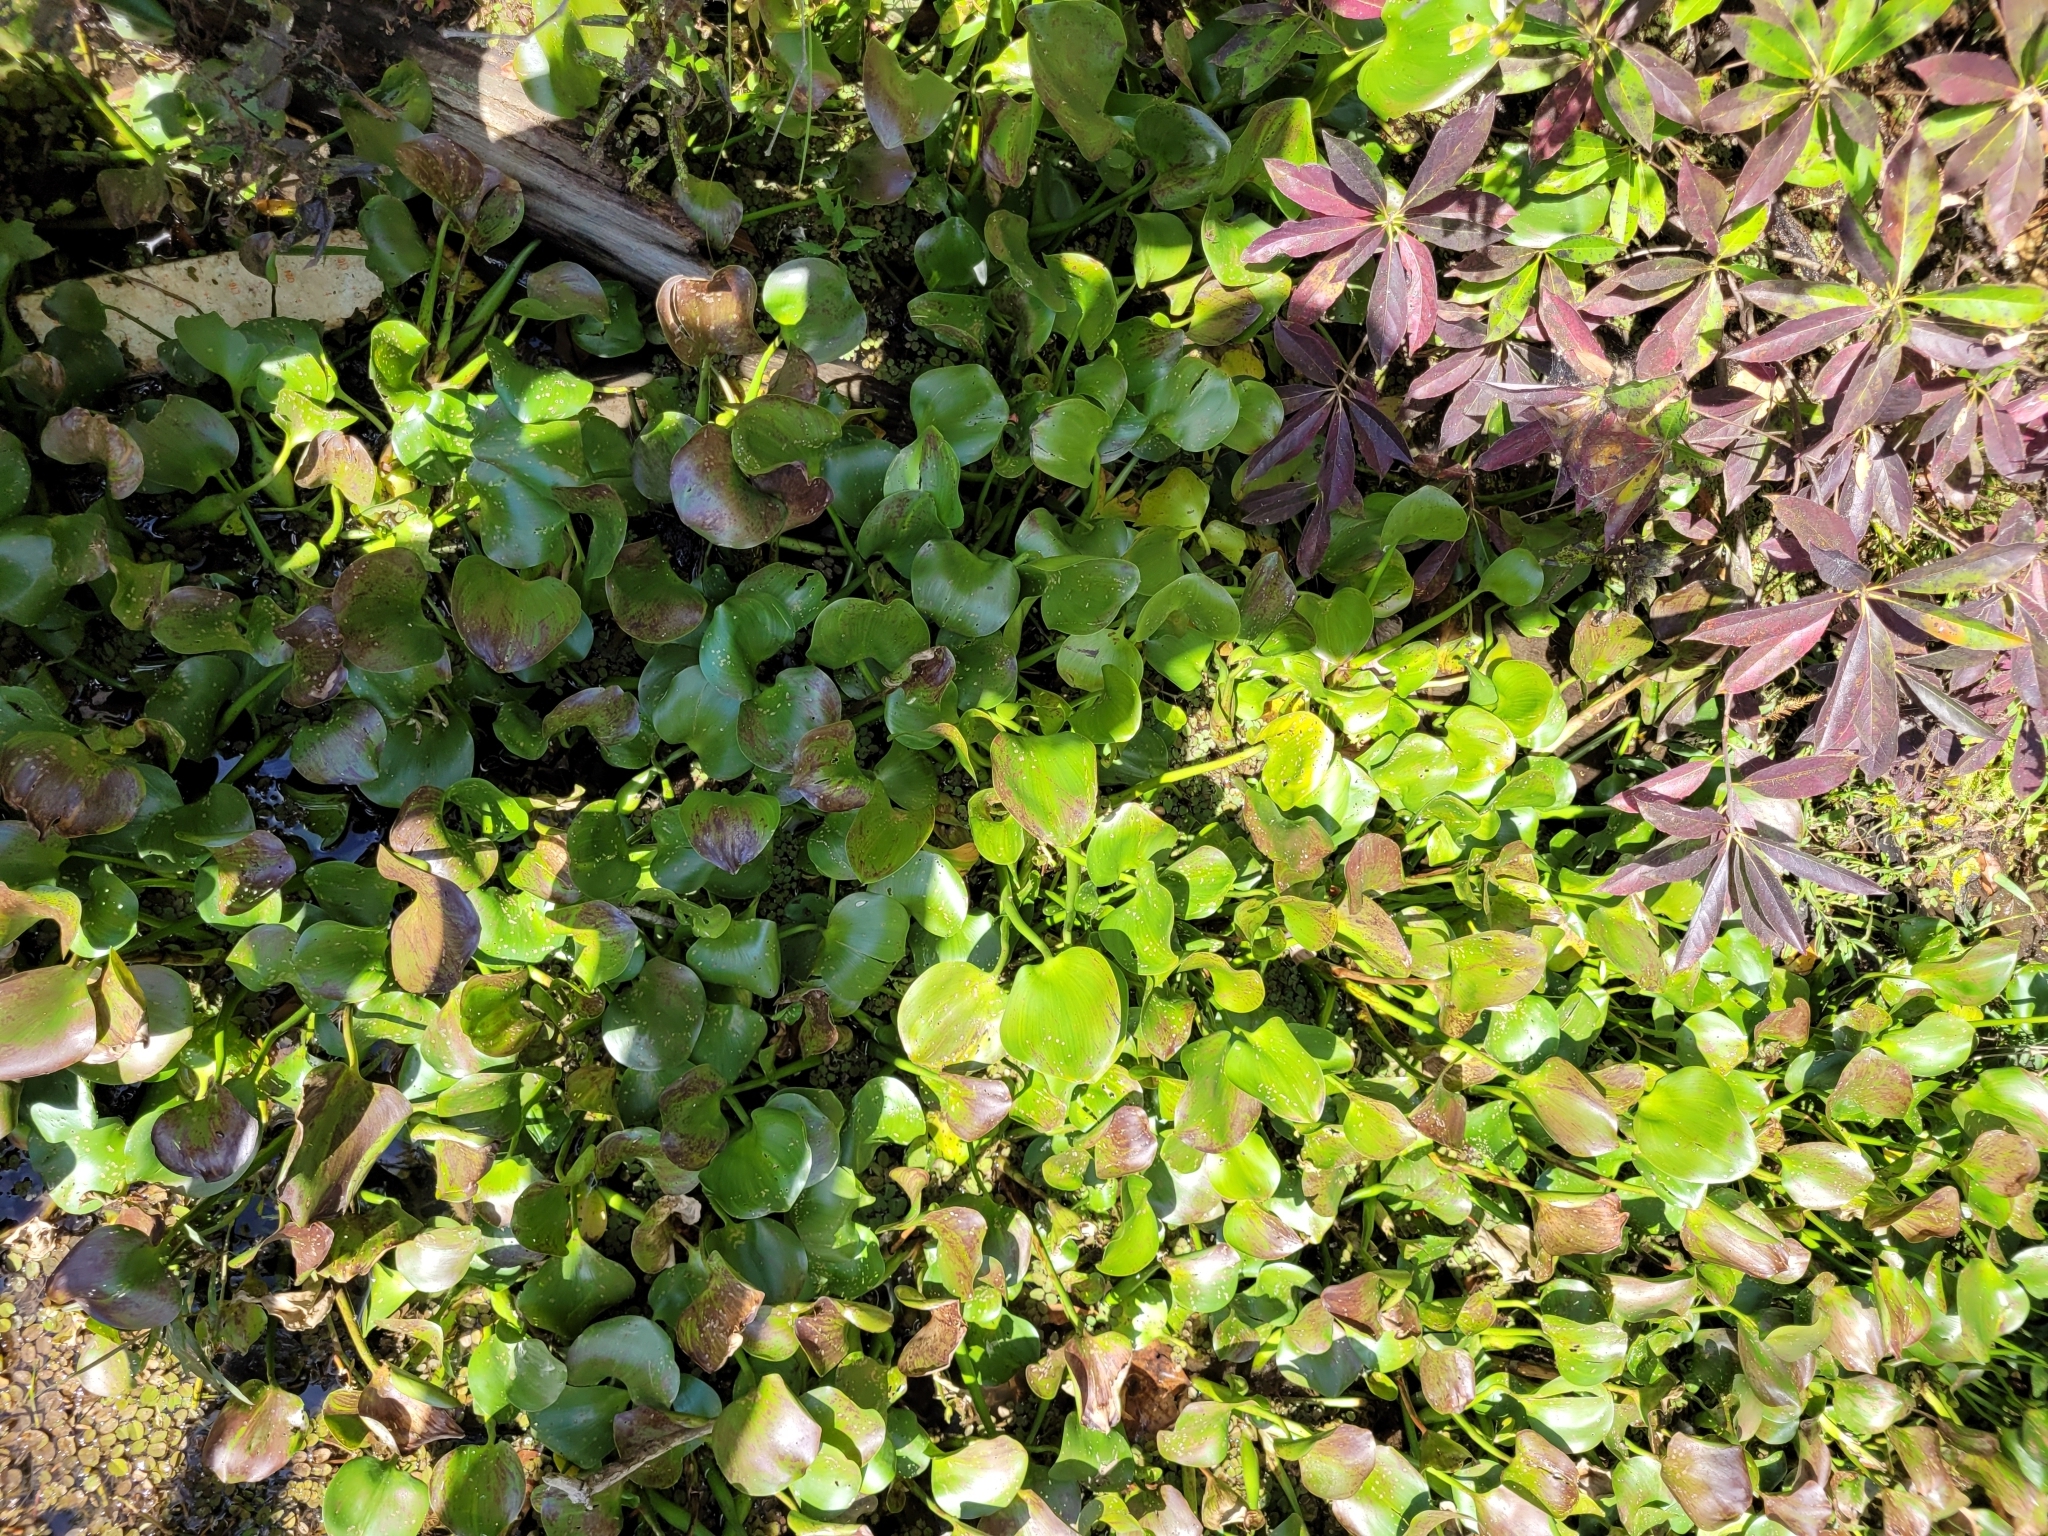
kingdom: Plantae
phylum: Tracheophyta
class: Liliopsida
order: Commelinales
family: Pontederiaceae
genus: Pontederia
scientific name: Pontederia crassipes
